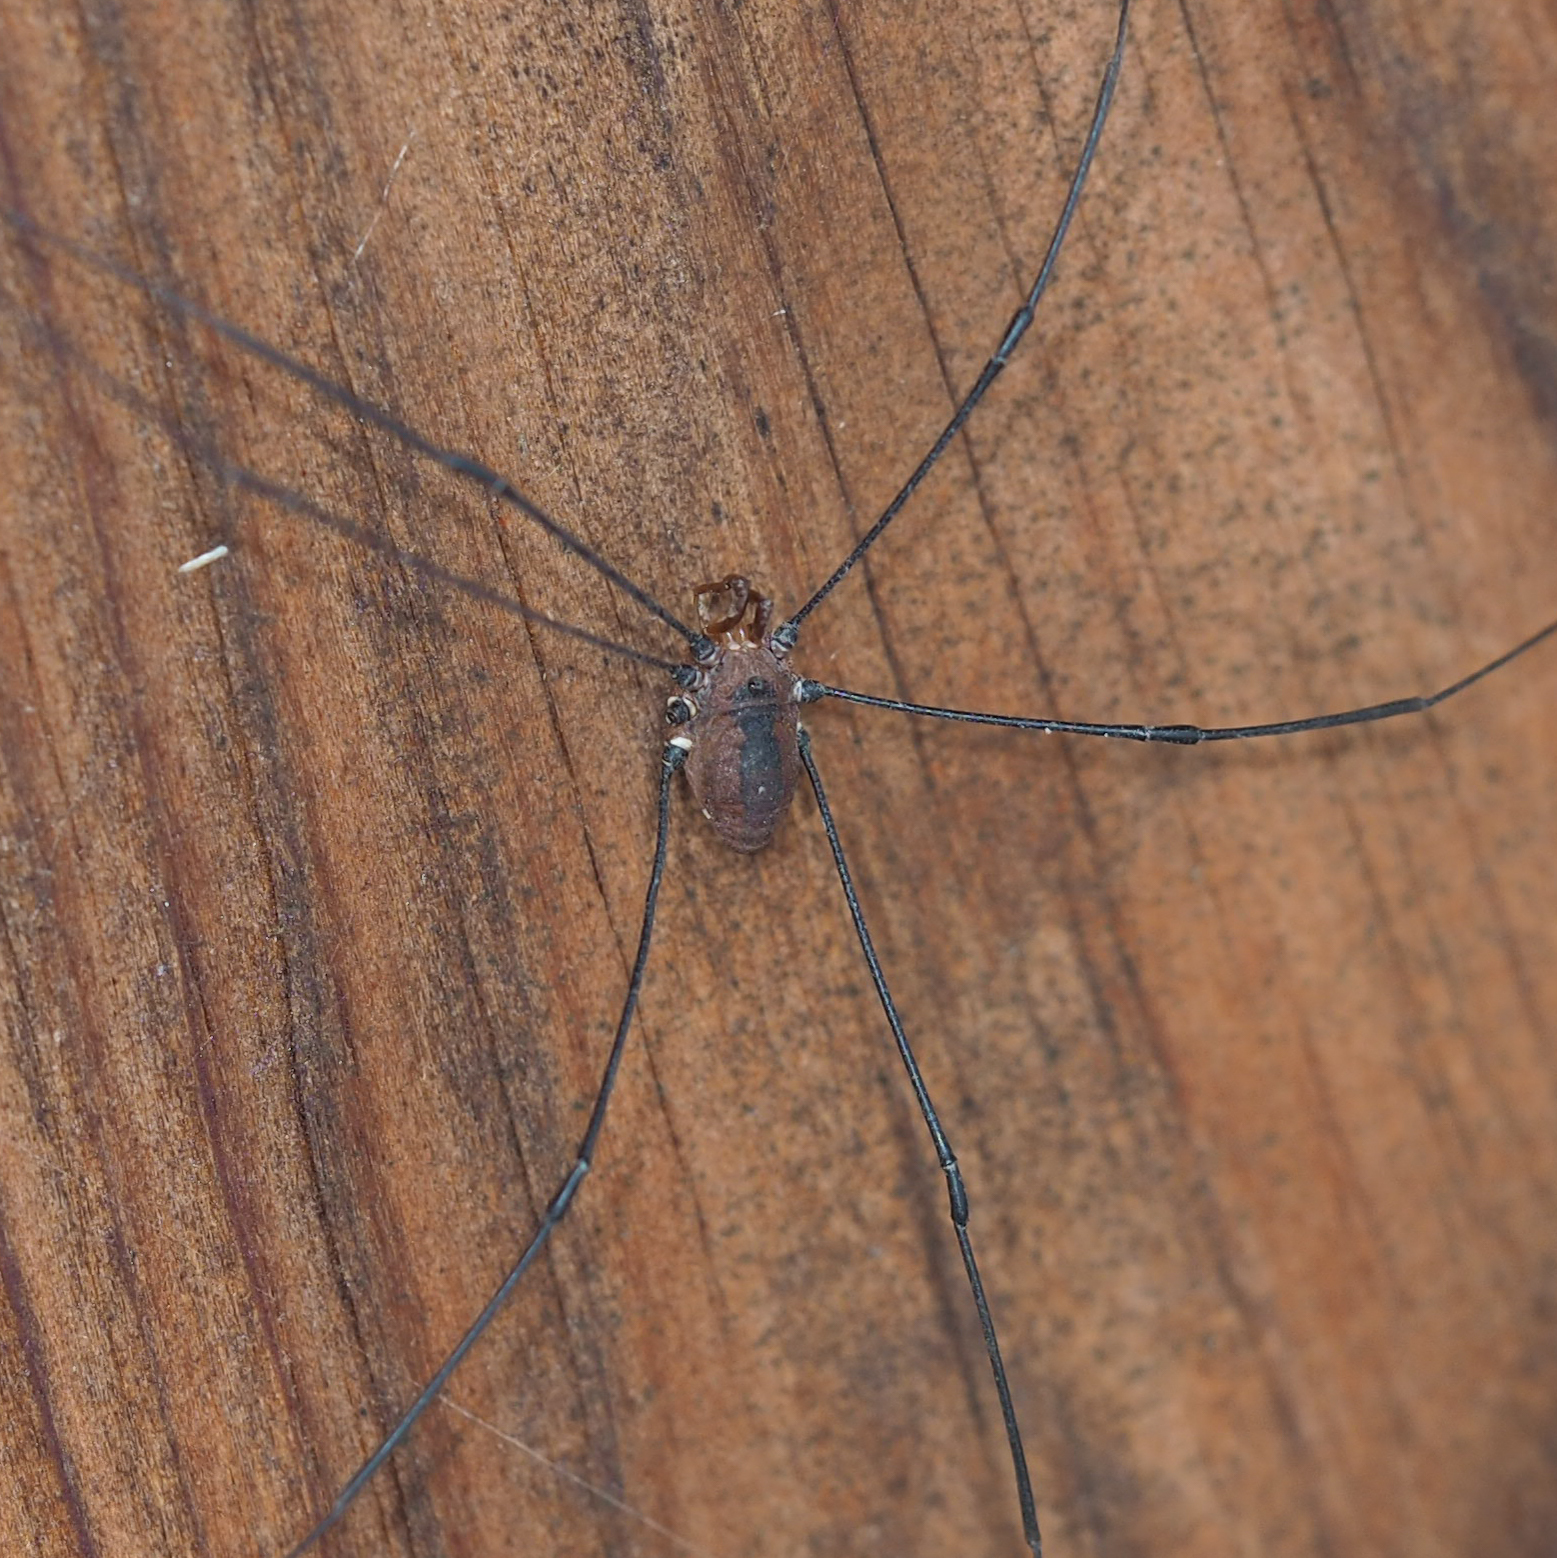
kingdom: Animalia
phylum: Arthropoda
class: Arachnida
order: Opiliones
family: Sclerosomatidae
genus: Leiobunum
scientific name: Leiobunum vittatum
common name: Eastern harvestman
